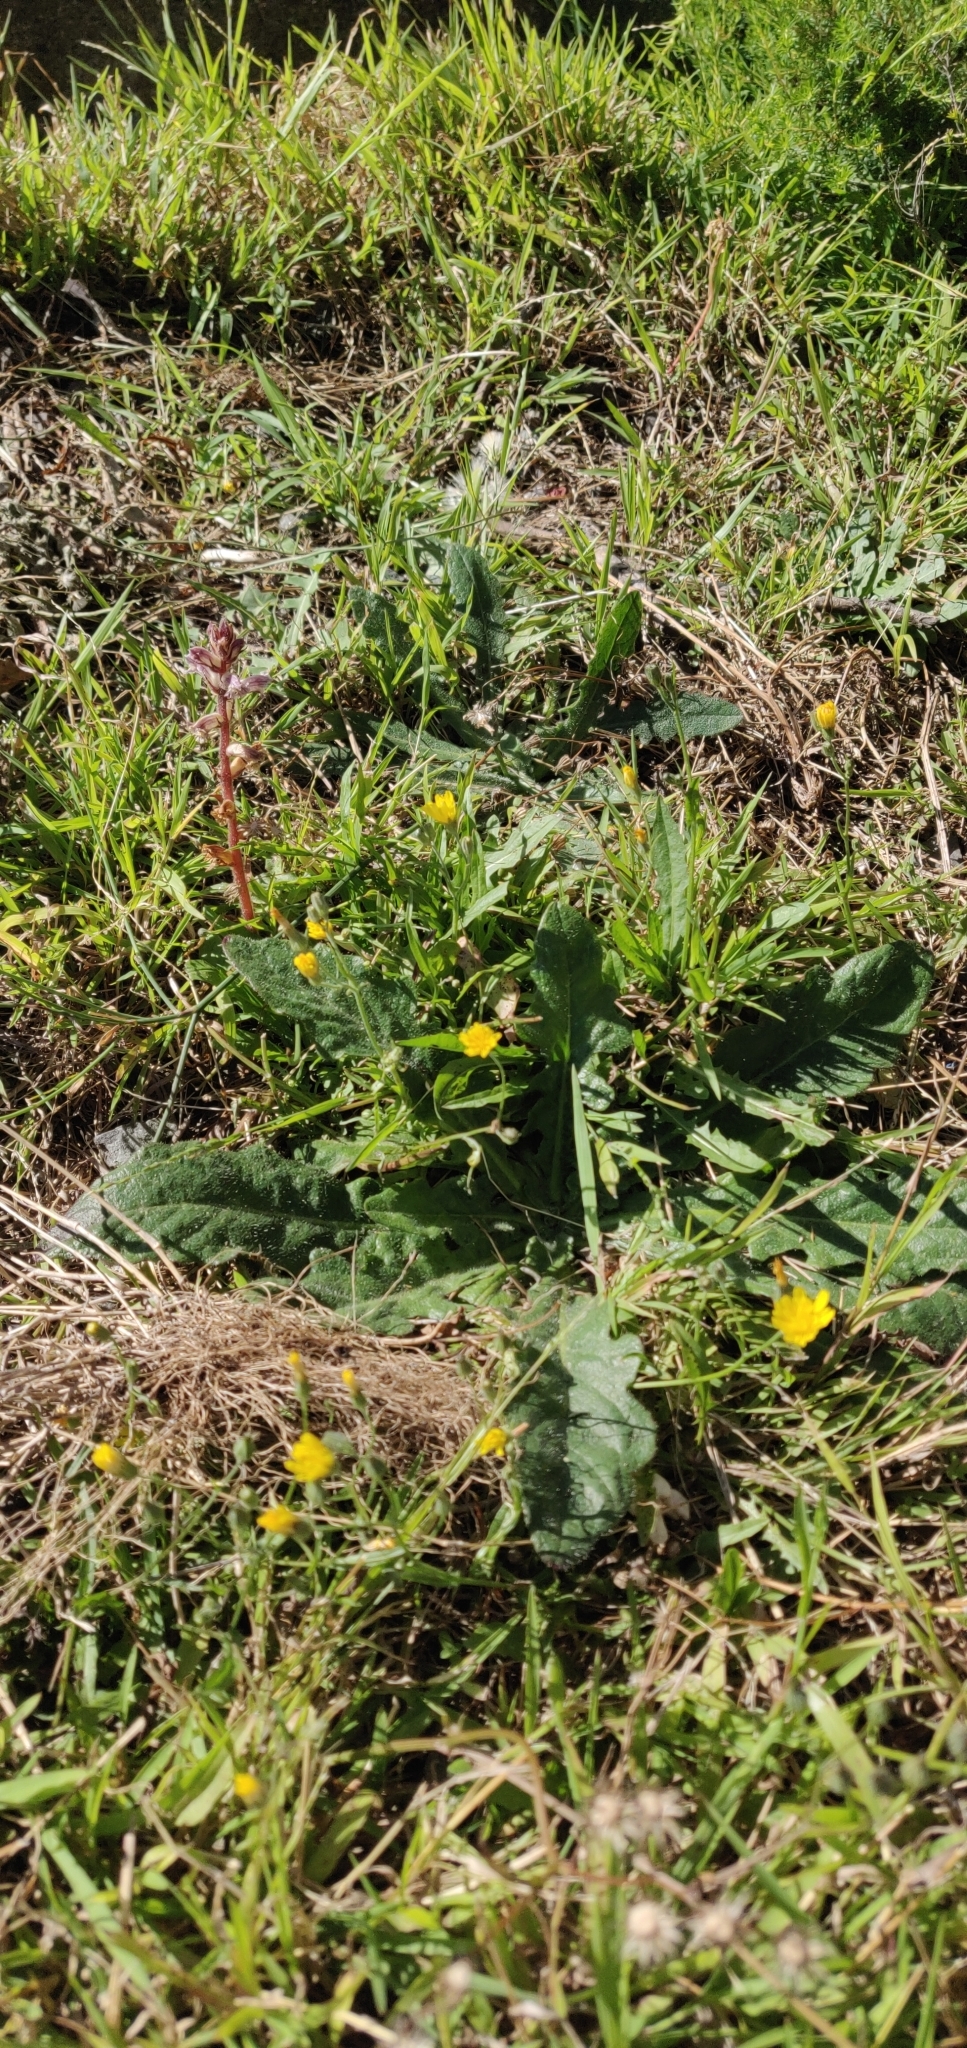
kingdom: Plantae
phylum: Tracheophyta
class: Magnoliopsida
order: Lamiales
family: Orobanchaceae
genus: Orobanche
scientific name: Orobanche minor
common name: Common broomrape
